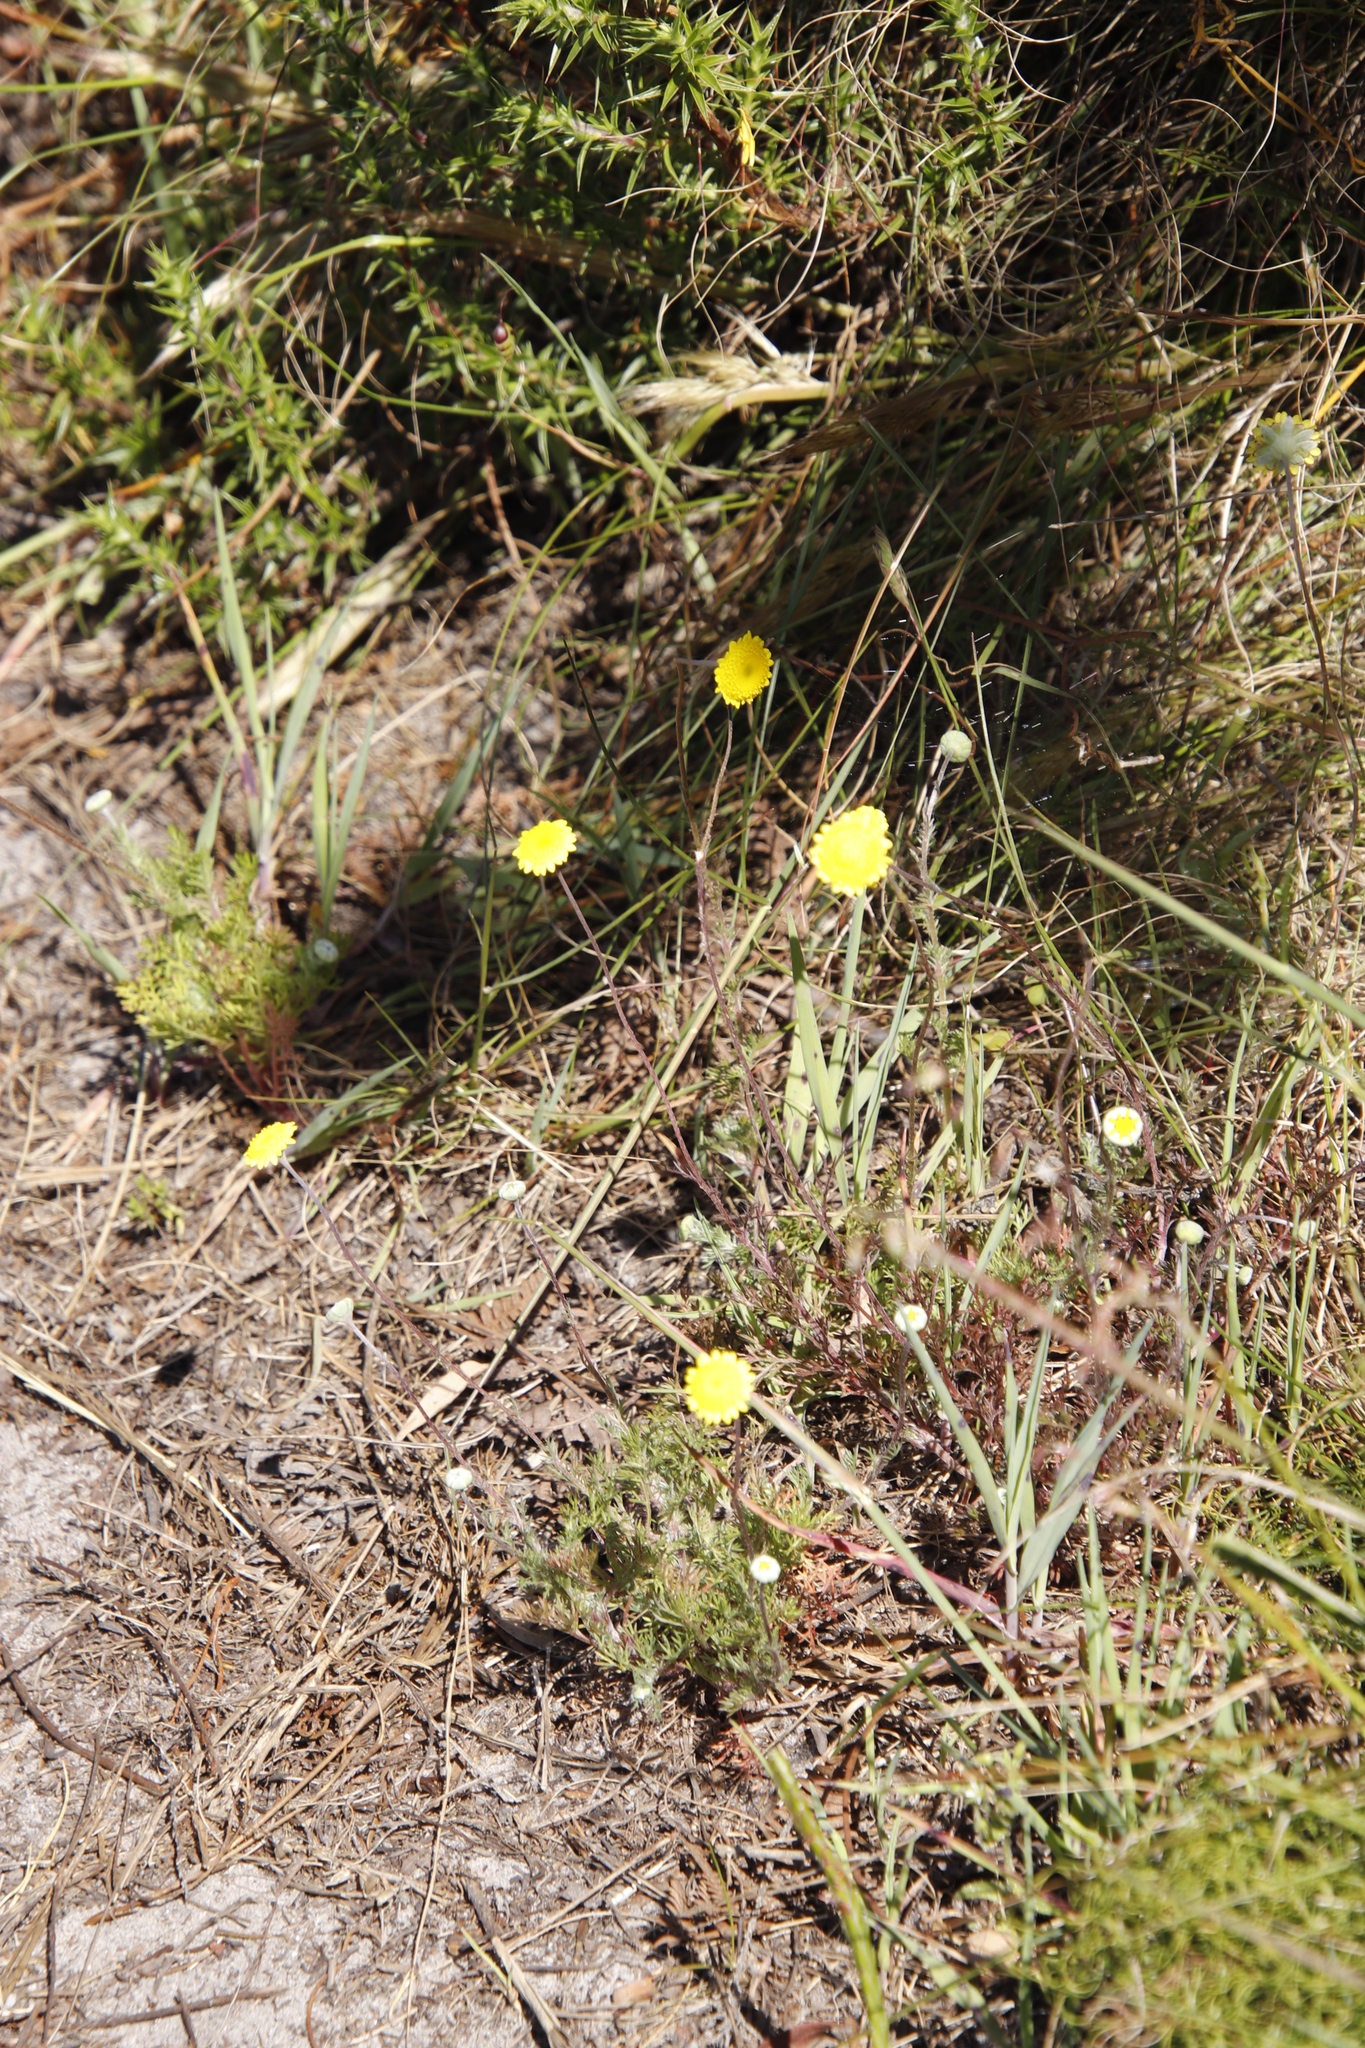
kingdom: Plantae
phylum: Tracheophyta
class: Magnoliopsida
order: Asterales
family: Asteraceae
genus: Cotula
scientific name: Cotula pruinosa
